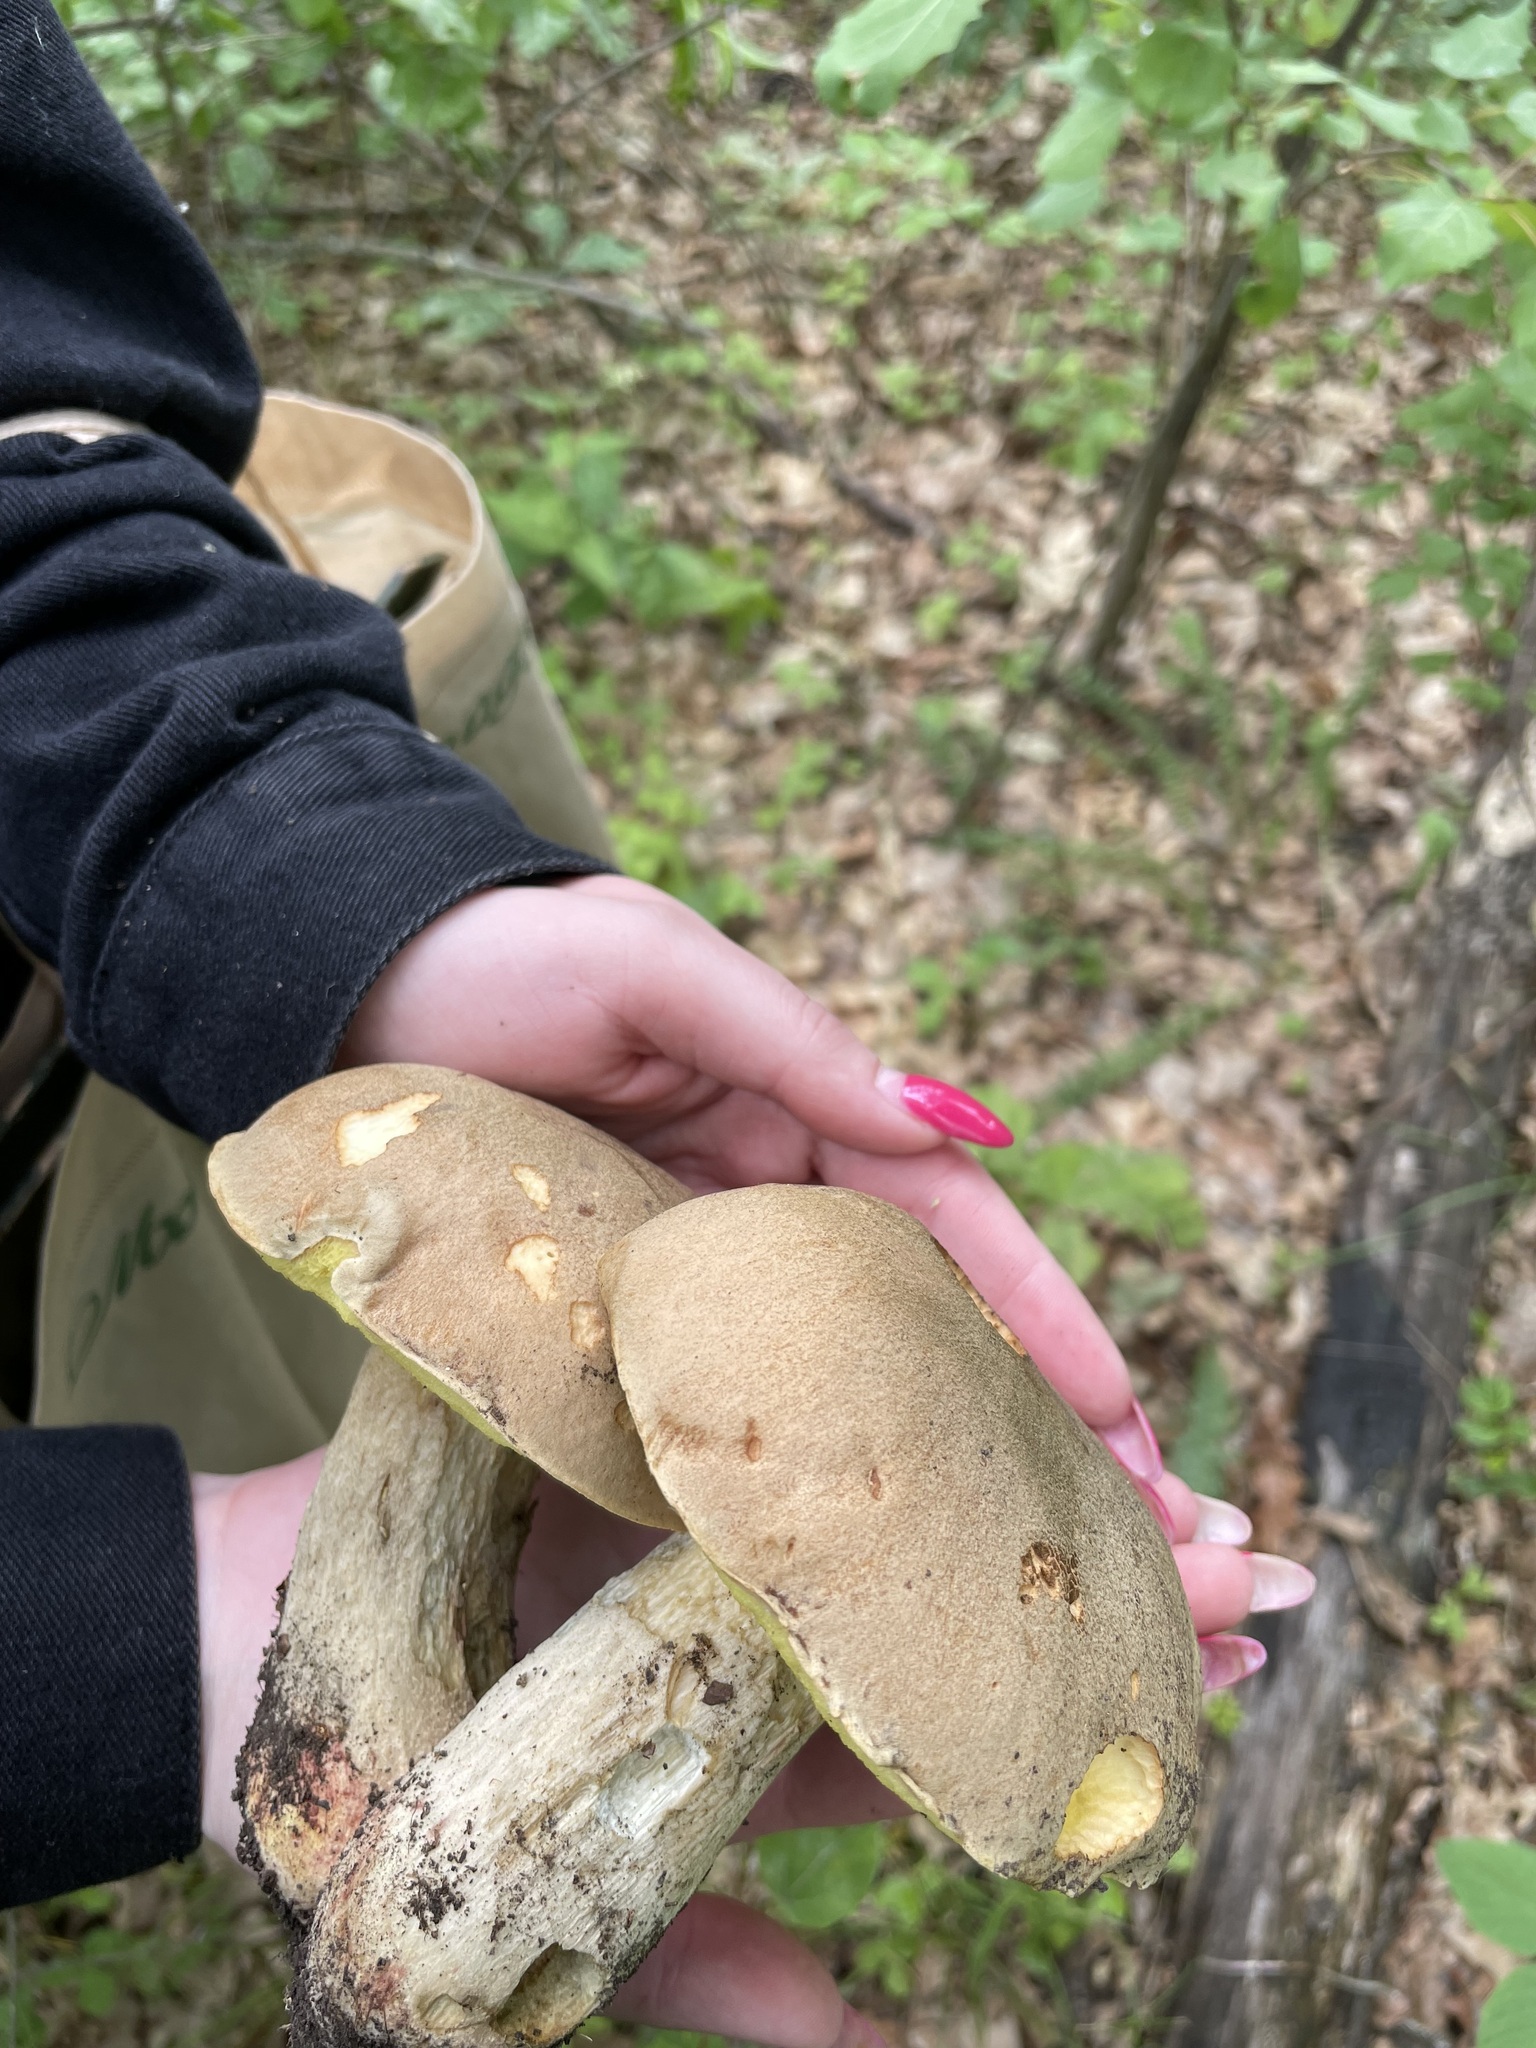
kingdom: Fungi
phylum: Basidiomycota
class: Agaricomycetes
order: Boletales
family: Boletaceae
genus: Hemileccinum
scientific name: Hemileccinum impolitum
